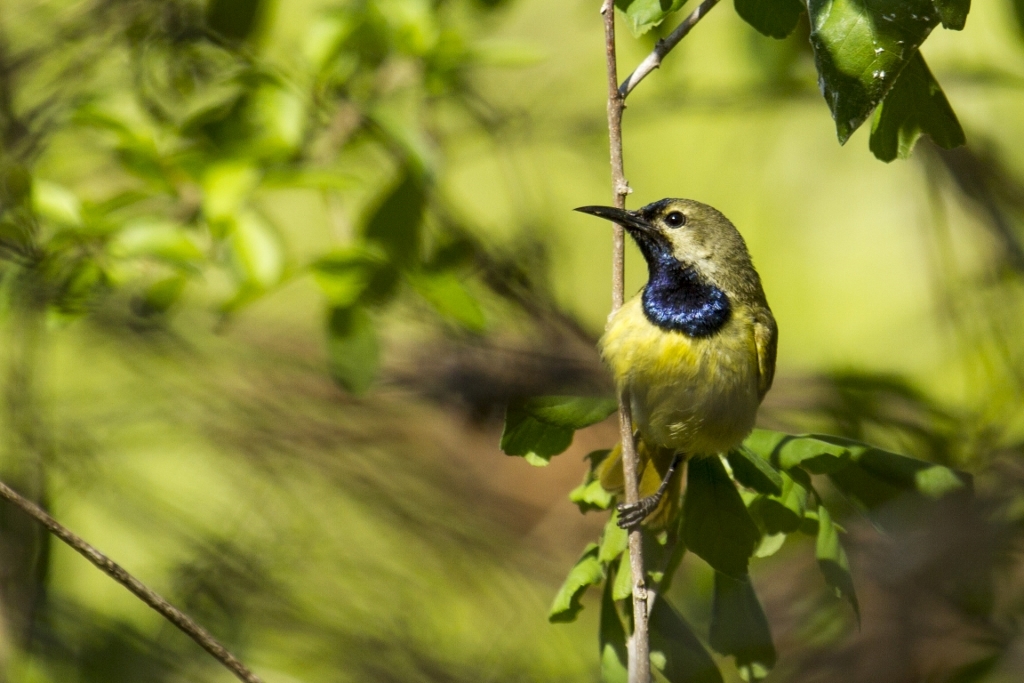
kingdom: Animalia
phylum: Chordata
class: Aves
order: Passeriformes
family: Nectariniidae
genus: Anthreptes
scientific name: Anthreptes reichenowi
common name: Plain-backed sunbird
